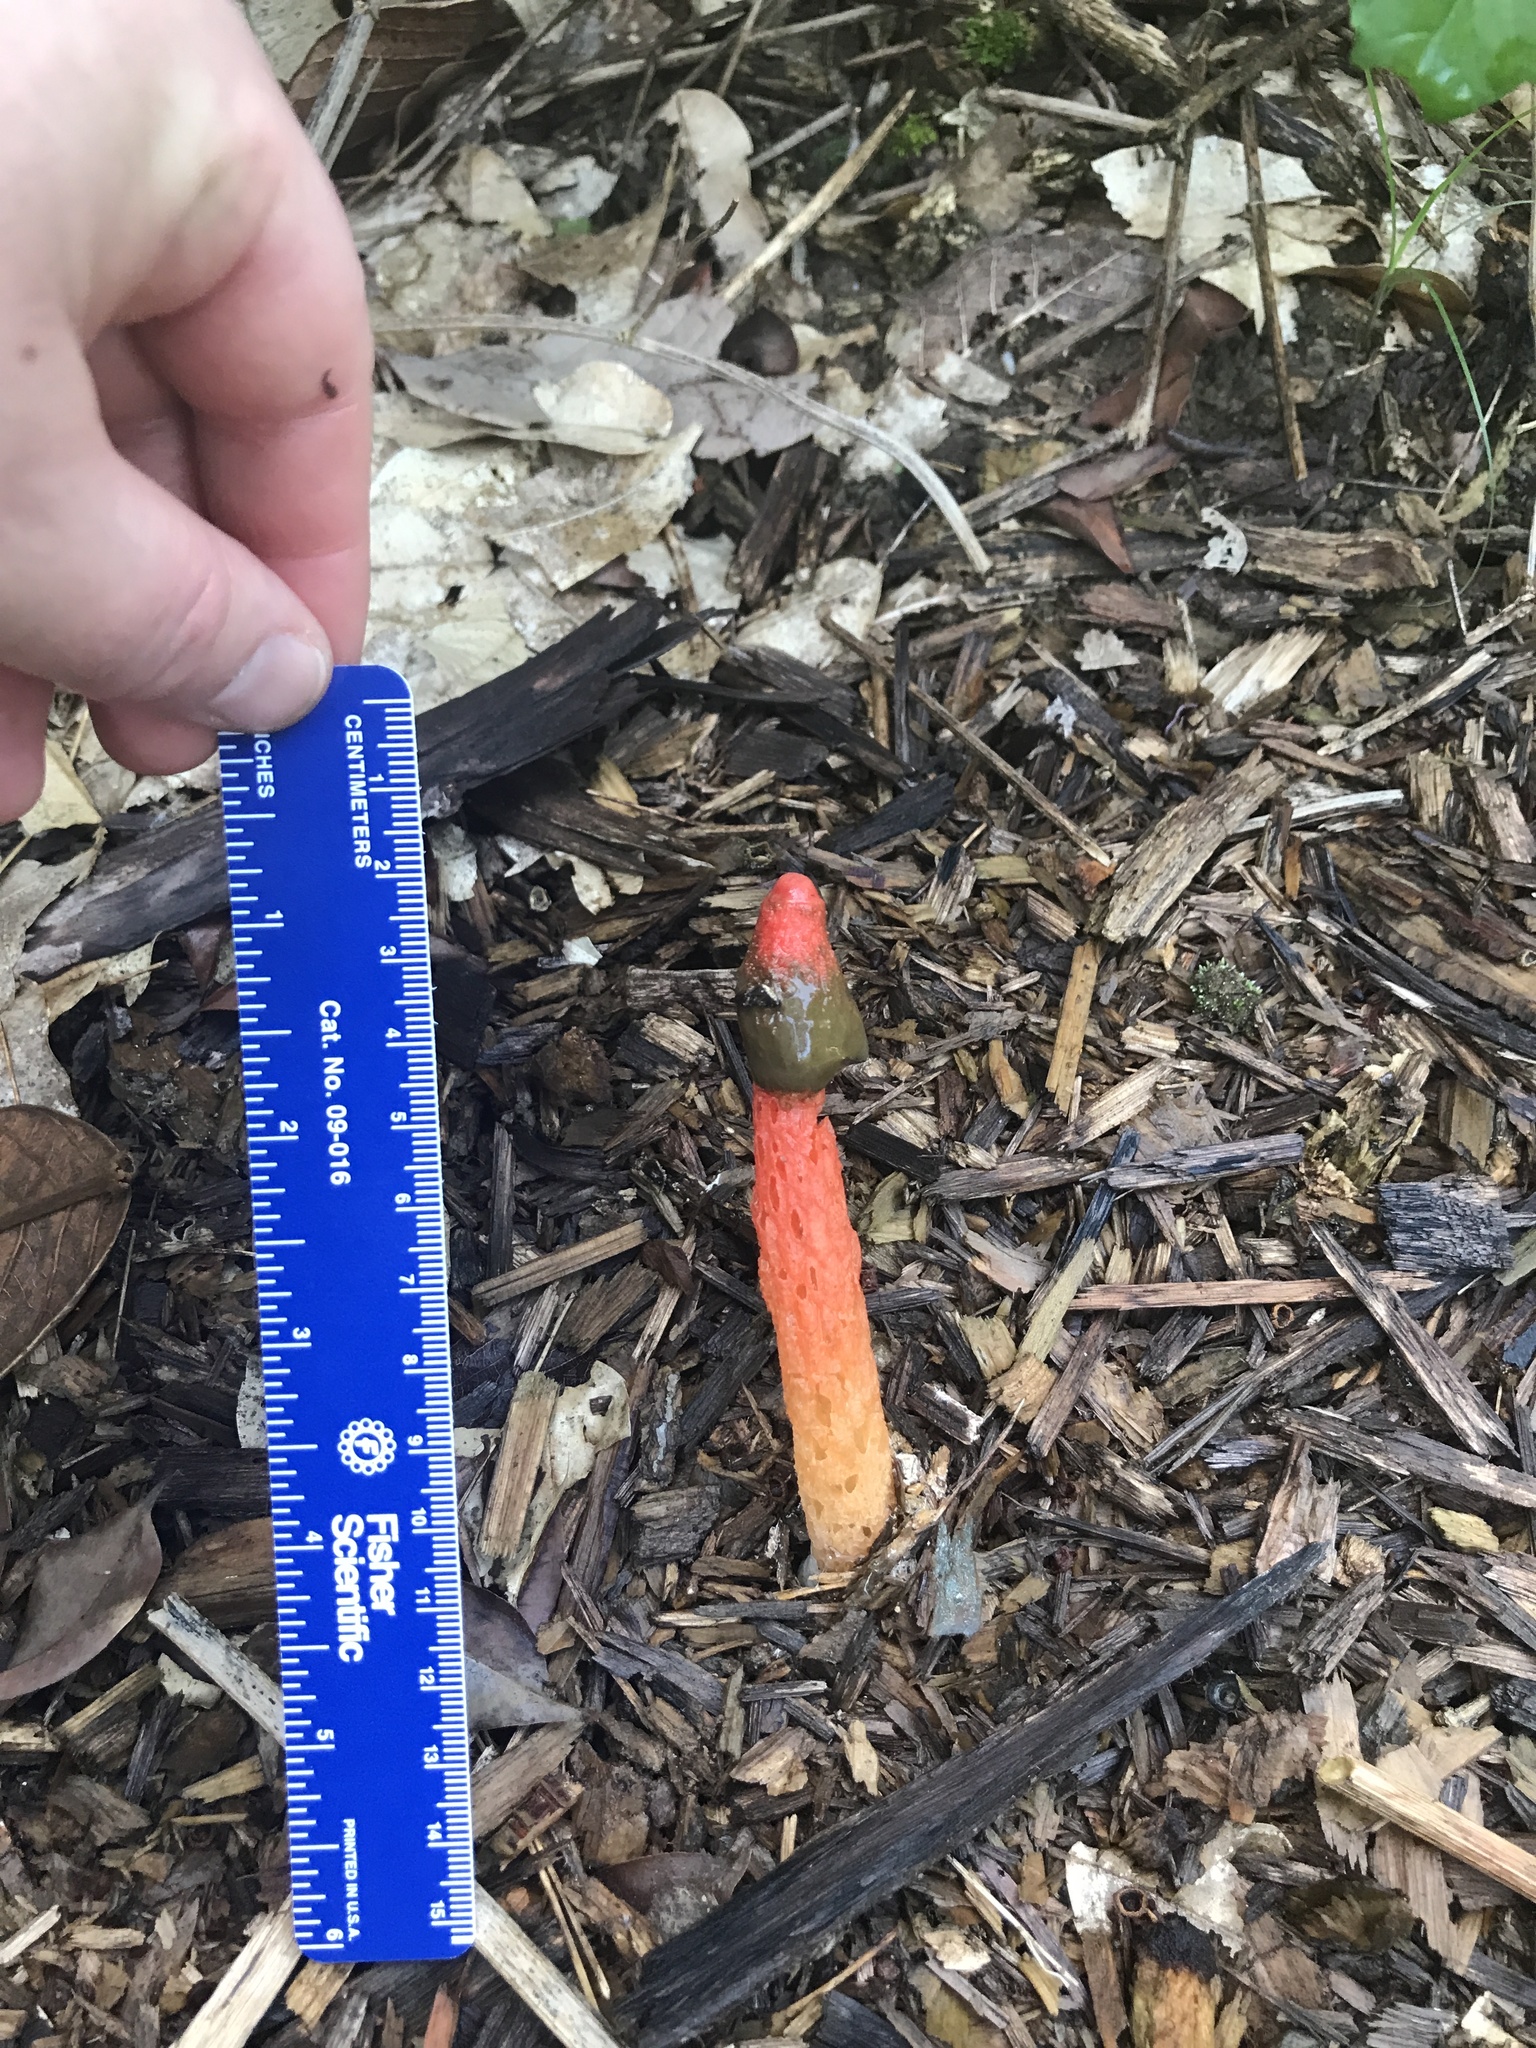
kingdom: Fungi
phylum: Basidiomycota
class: Agaricomycetes
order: Phallales
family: Phallaceae
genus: Phallus
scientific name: Phallus rugulosus
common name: Wrinkly stinkhorn
